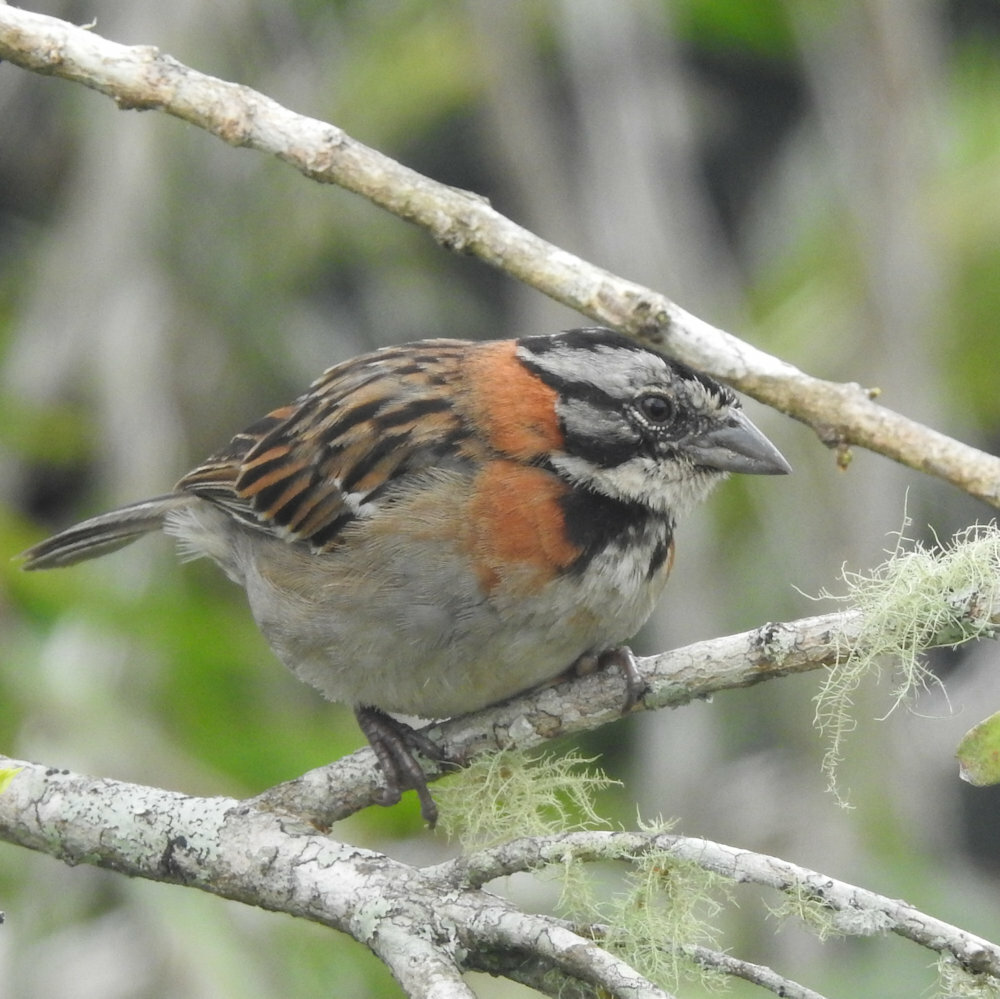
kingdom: Animalia
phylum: Chordata
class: Aves
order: Passeriformes
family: Passerellidae
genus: Zonotrichia
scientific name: Zonotrichia capensis
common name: Rufous-collared sparrow
